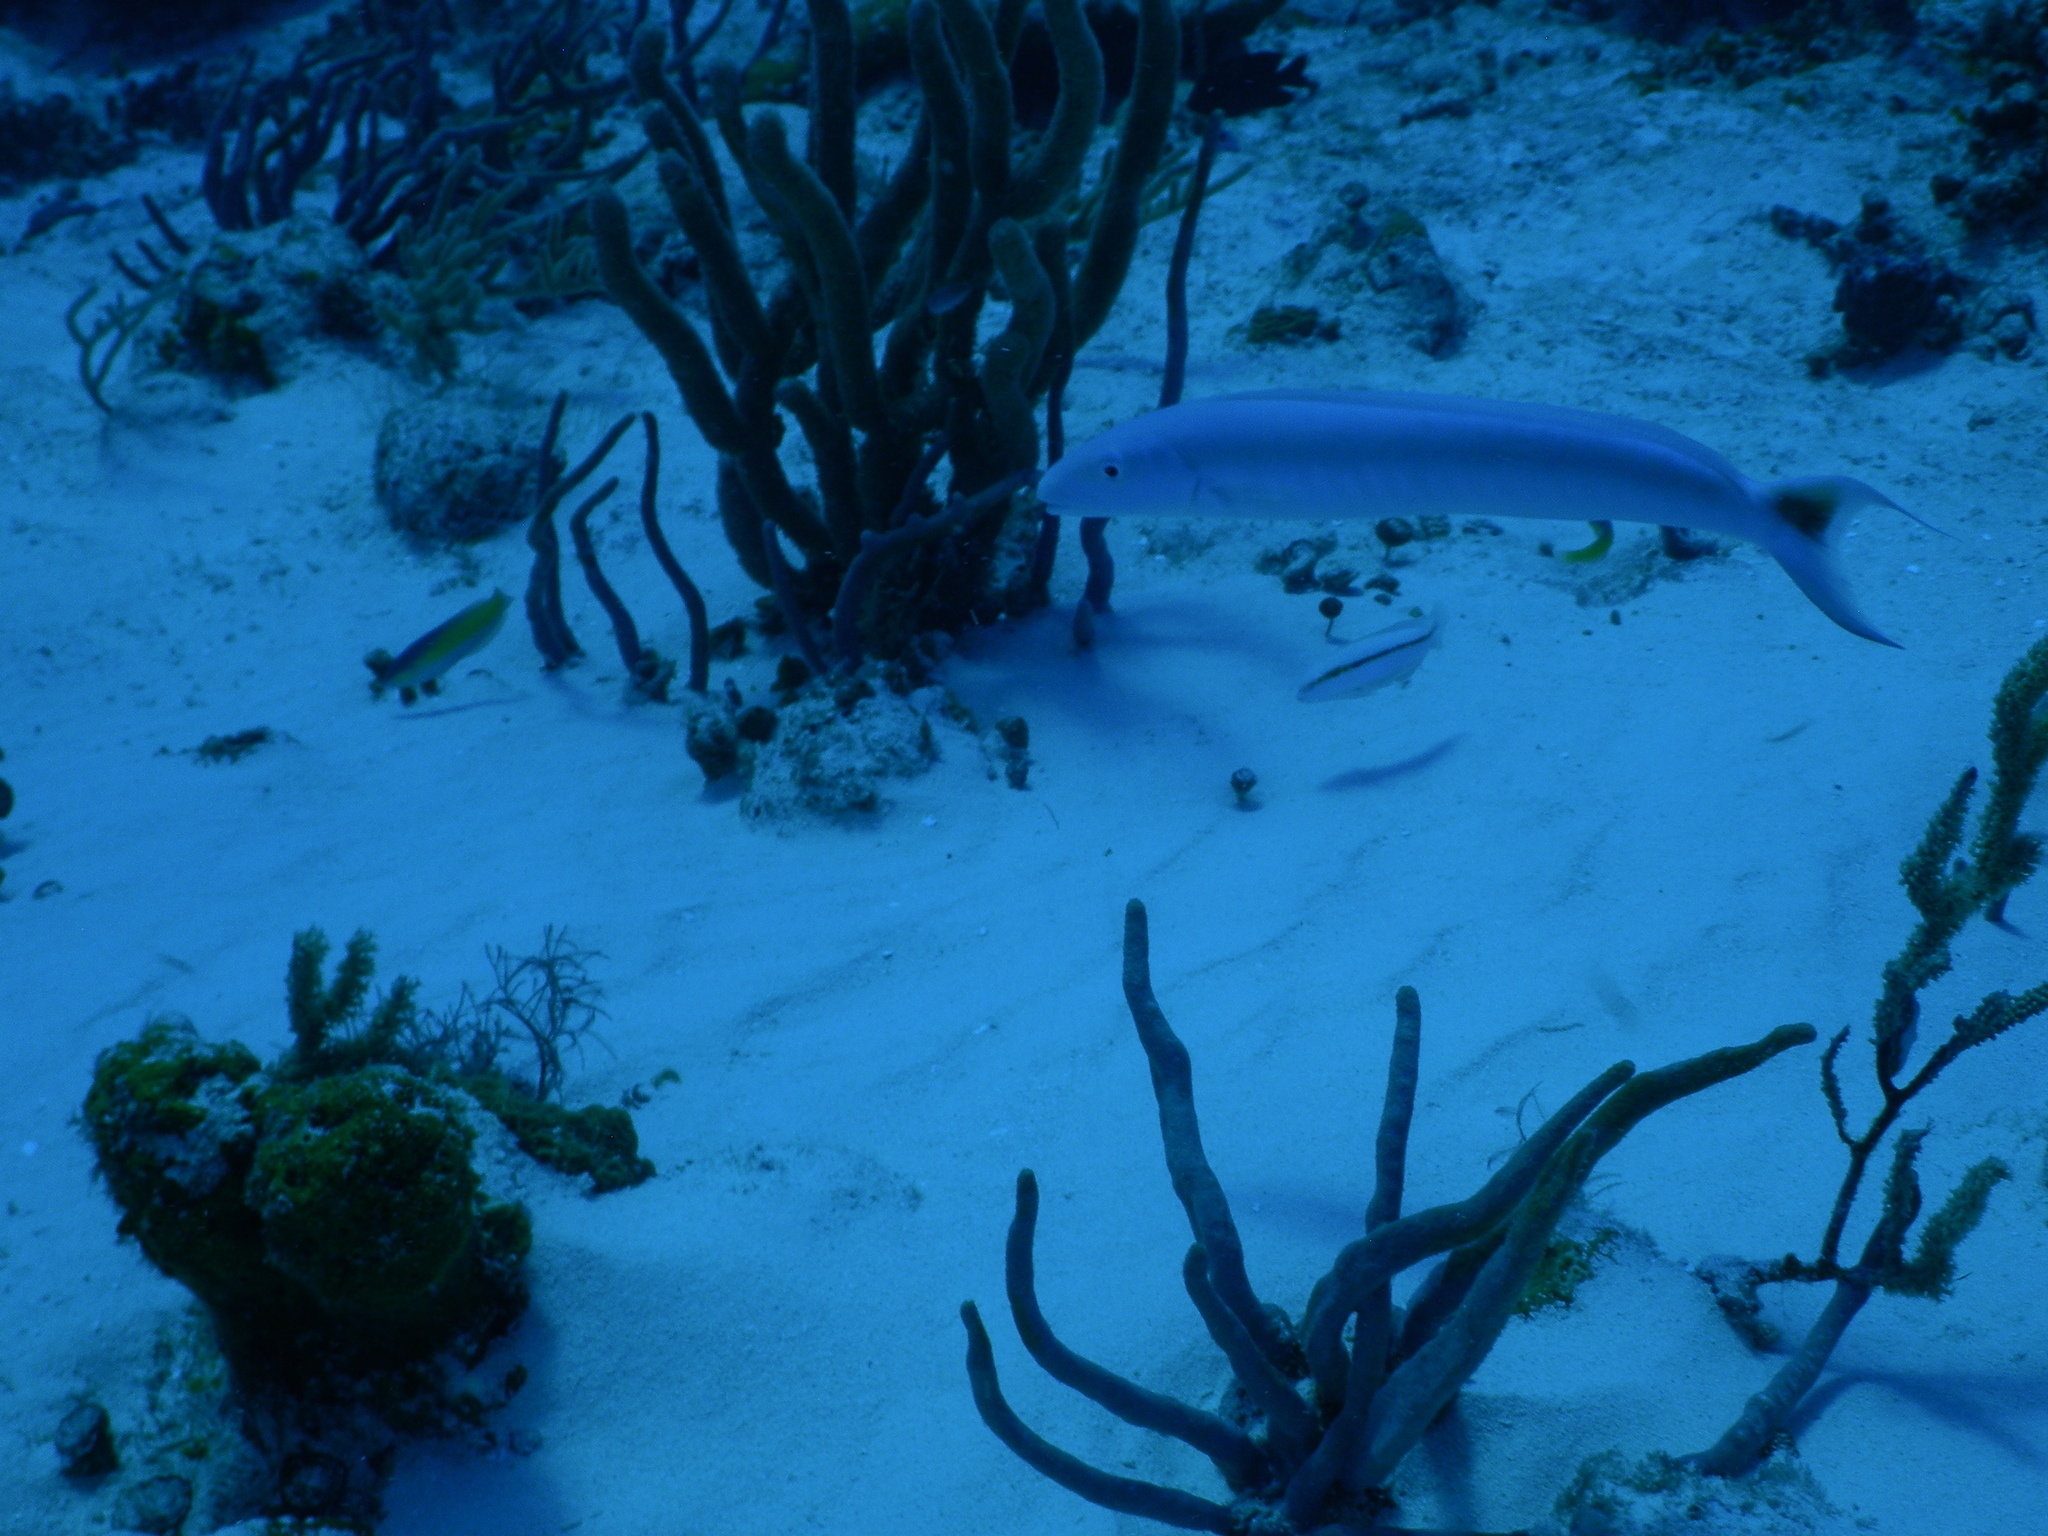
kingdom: Animalia
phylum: Chordata
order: Perciformes
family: Malacanthidae
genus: Malacanthus
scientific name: Malacanthus plumieri
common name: Sand tilefish
